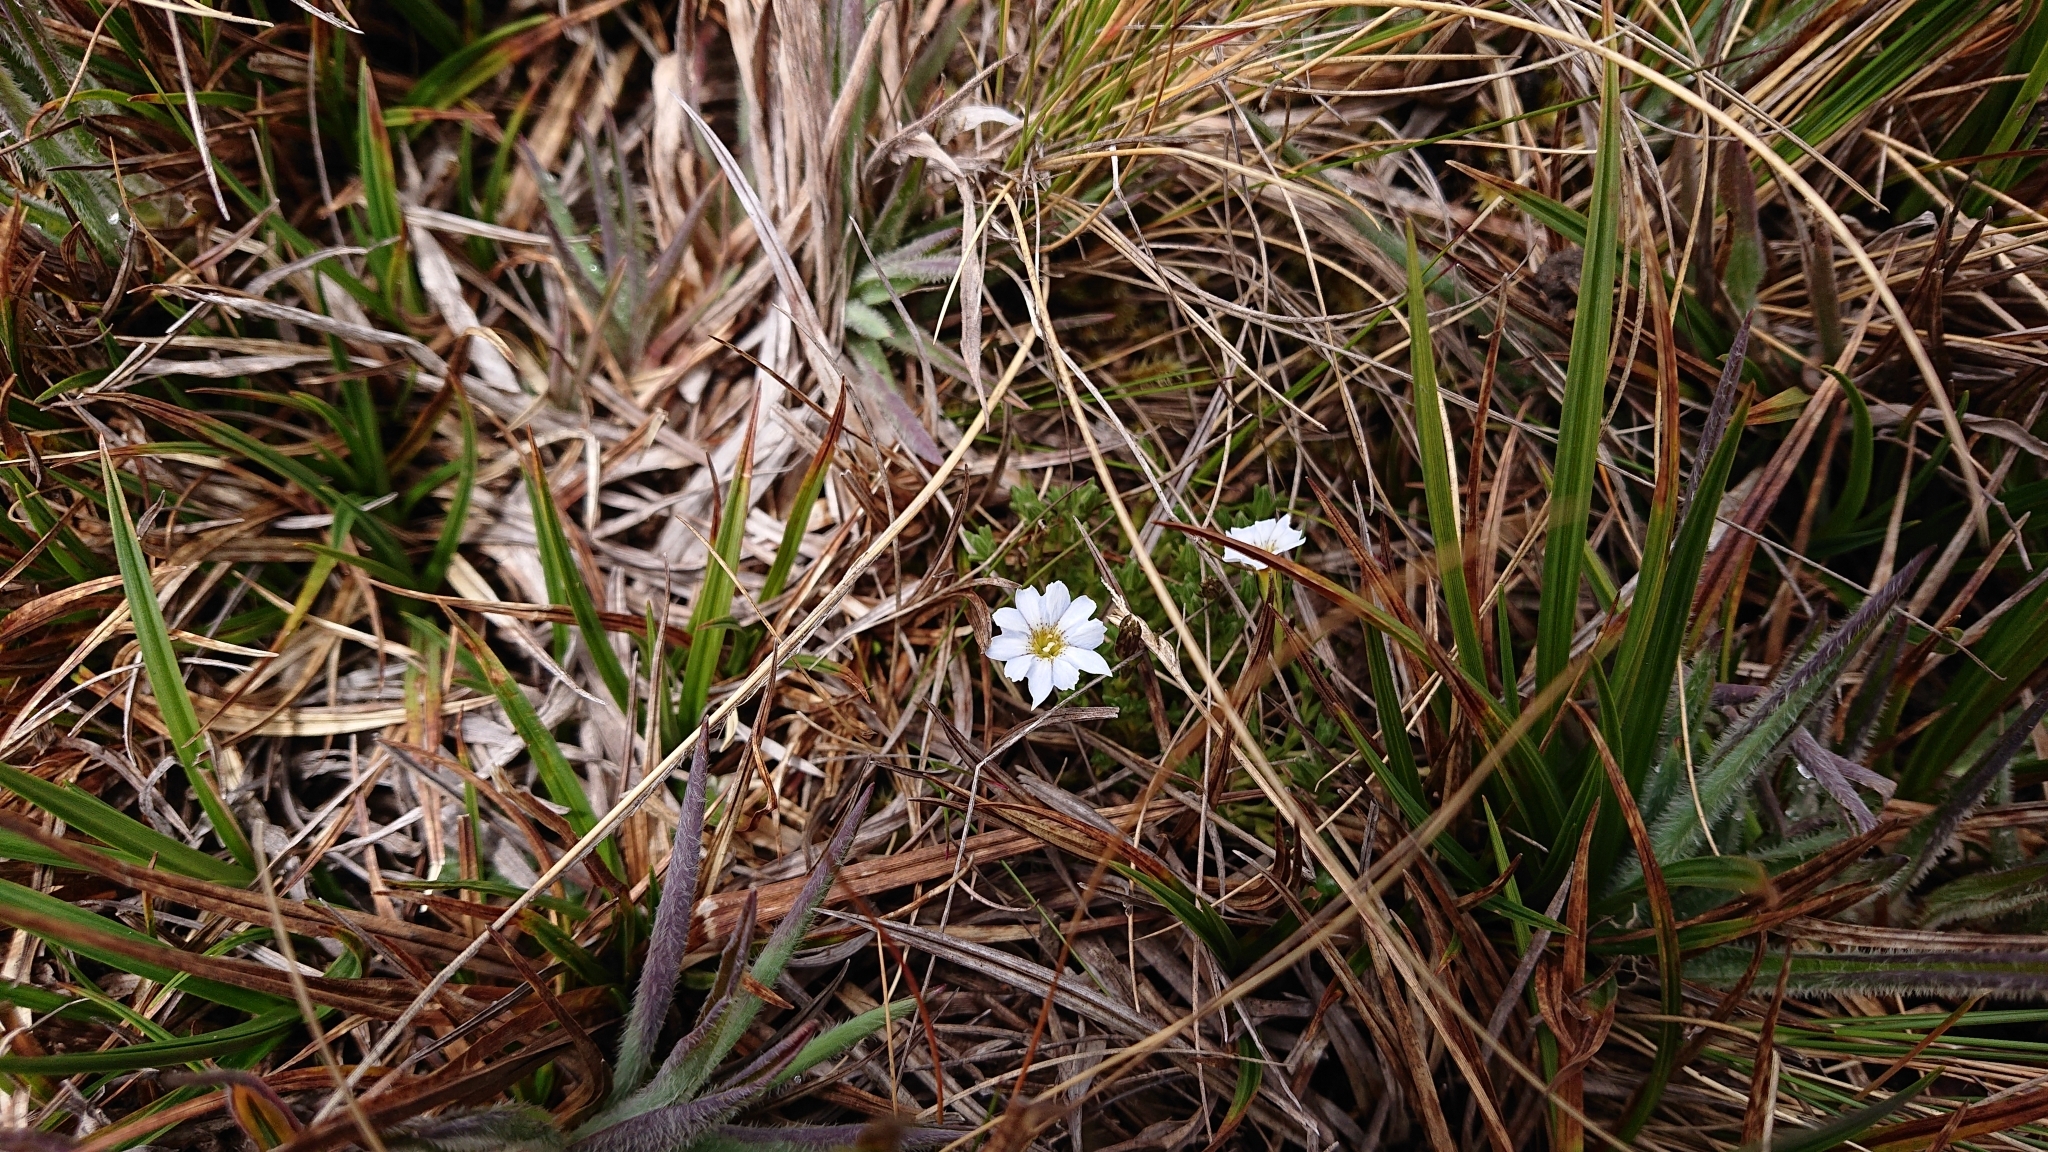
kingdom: Plantae
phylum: Tracheophyta
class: Magnoliopsida
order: Gentianales
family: Gentianaceae
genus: Gentiana
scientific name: Gentiana sedifolia
